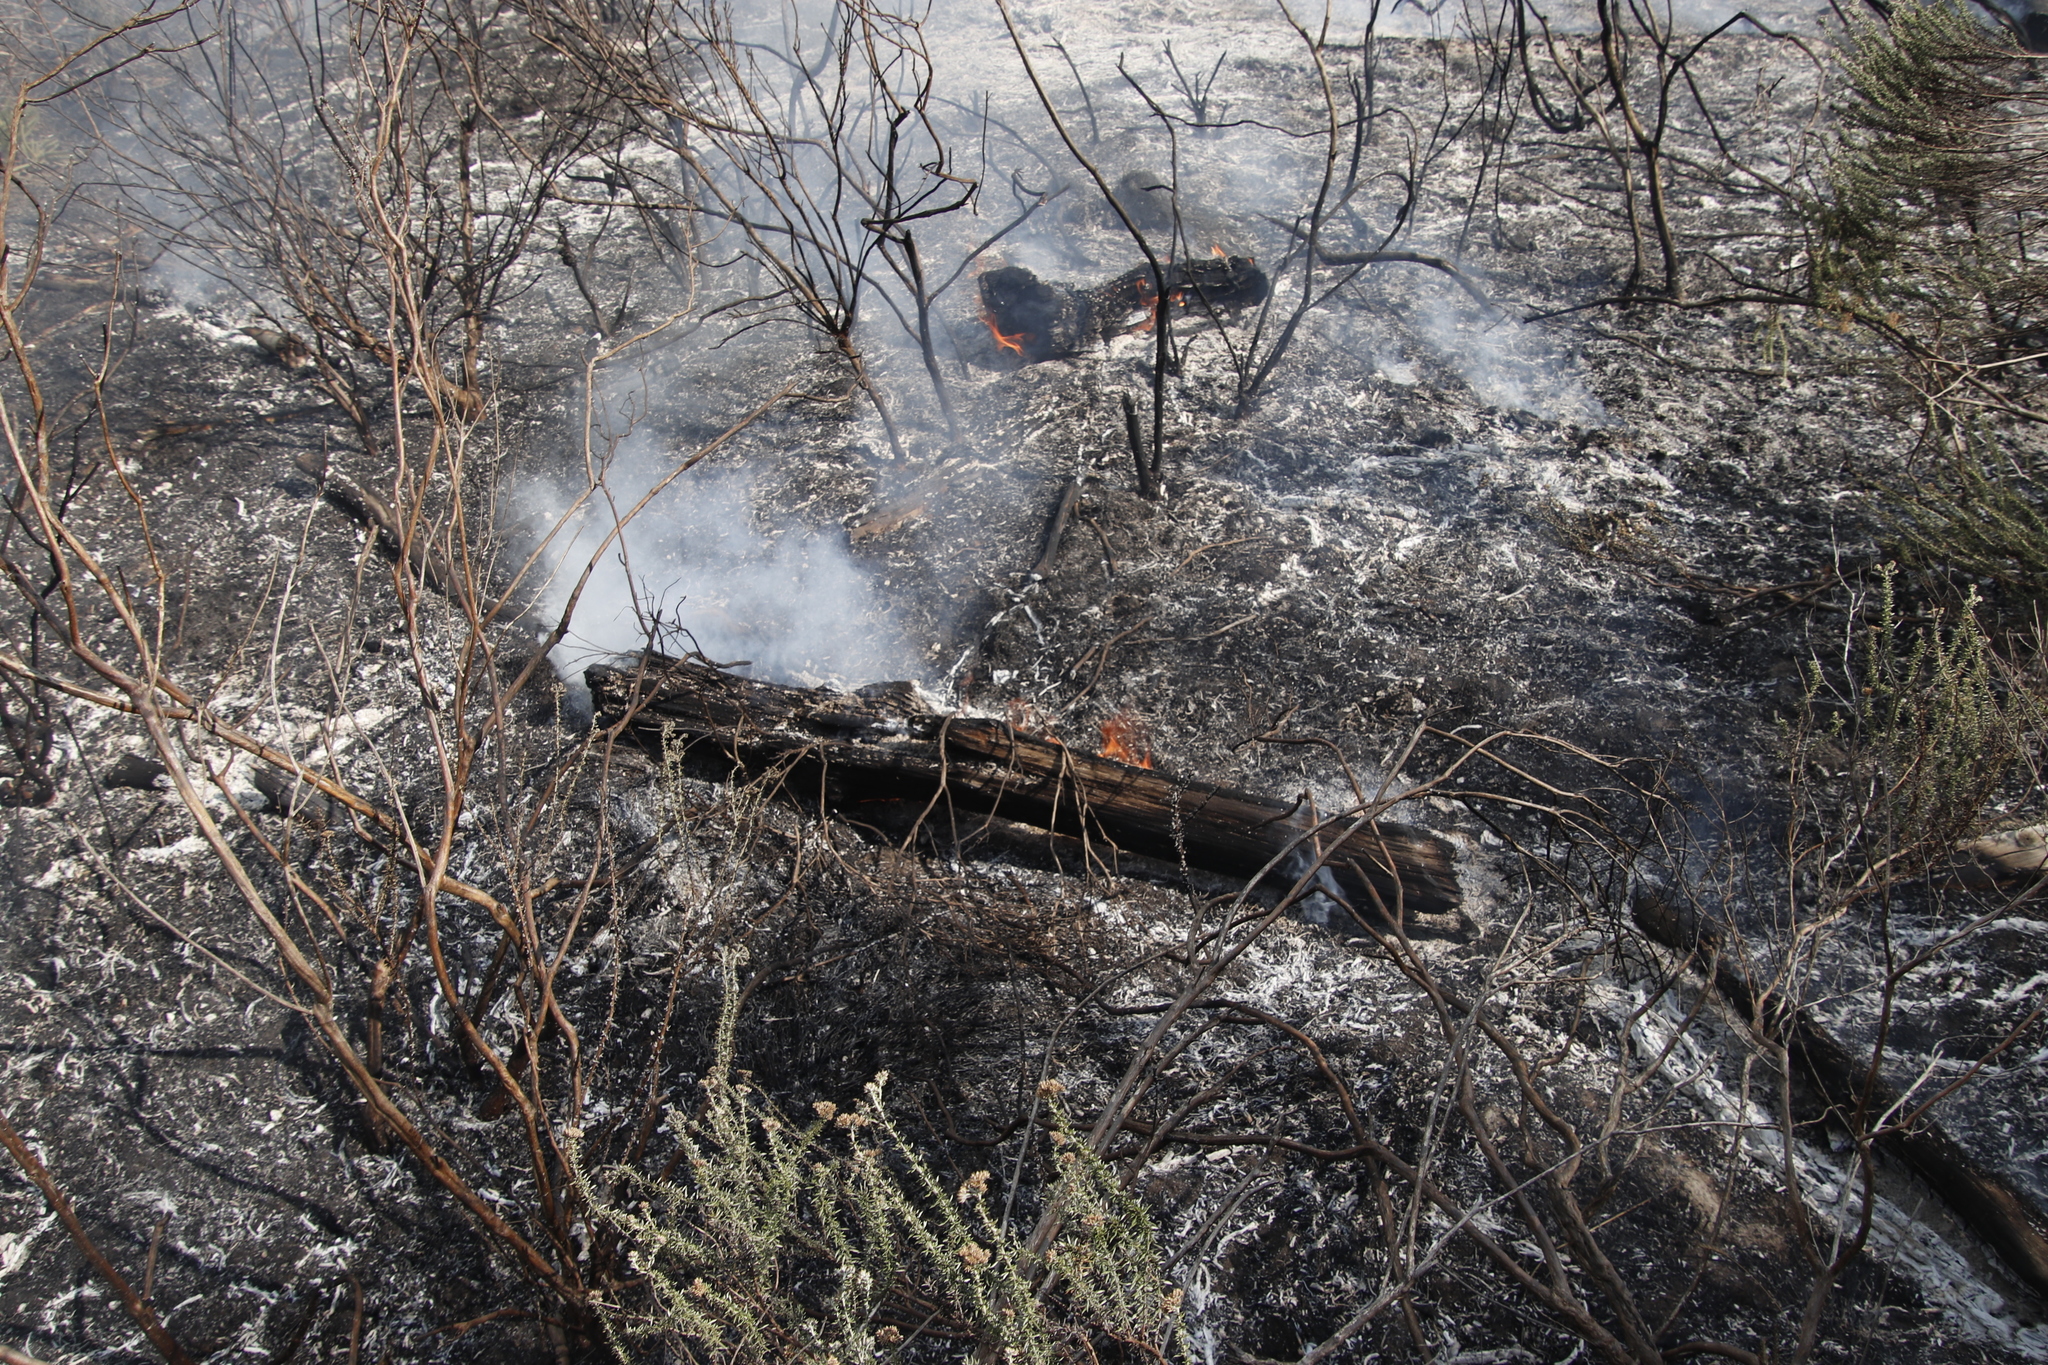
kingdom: Plantae
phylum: Tracheophyta
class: Pinopsida
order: Pinales
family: Pinaceae
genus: Pinus
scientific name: Pinus radiata
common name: Monterey pine
